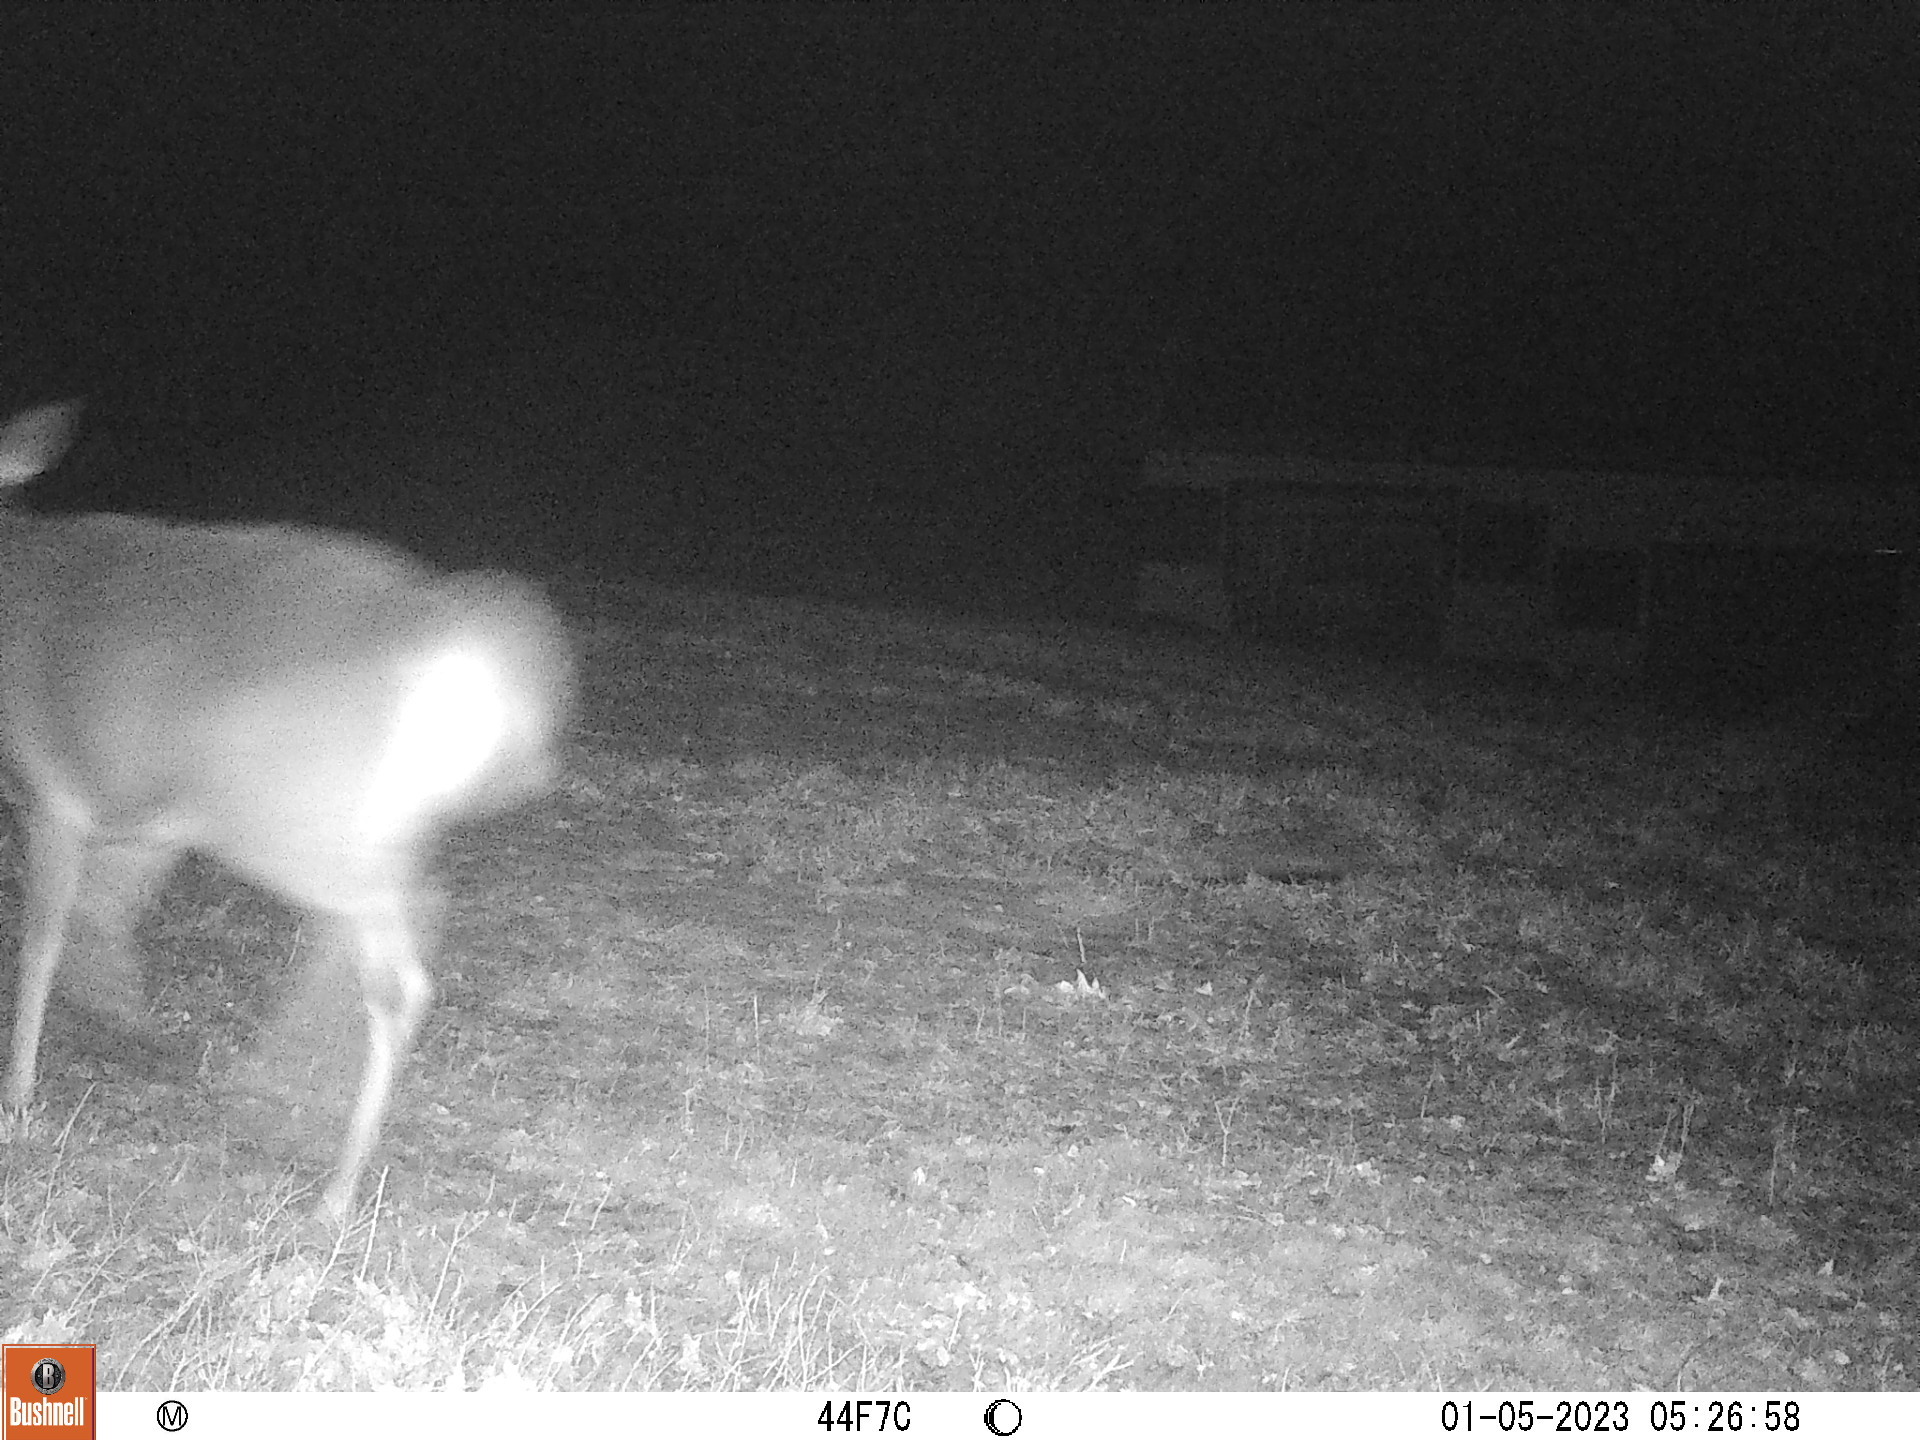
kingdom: Animalia
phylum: Chordata
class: Mammalia
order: Artiodactyla
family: Cervidae
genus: Odocoileus
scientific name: Odocoileus virginianus
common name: White-tailed deer
